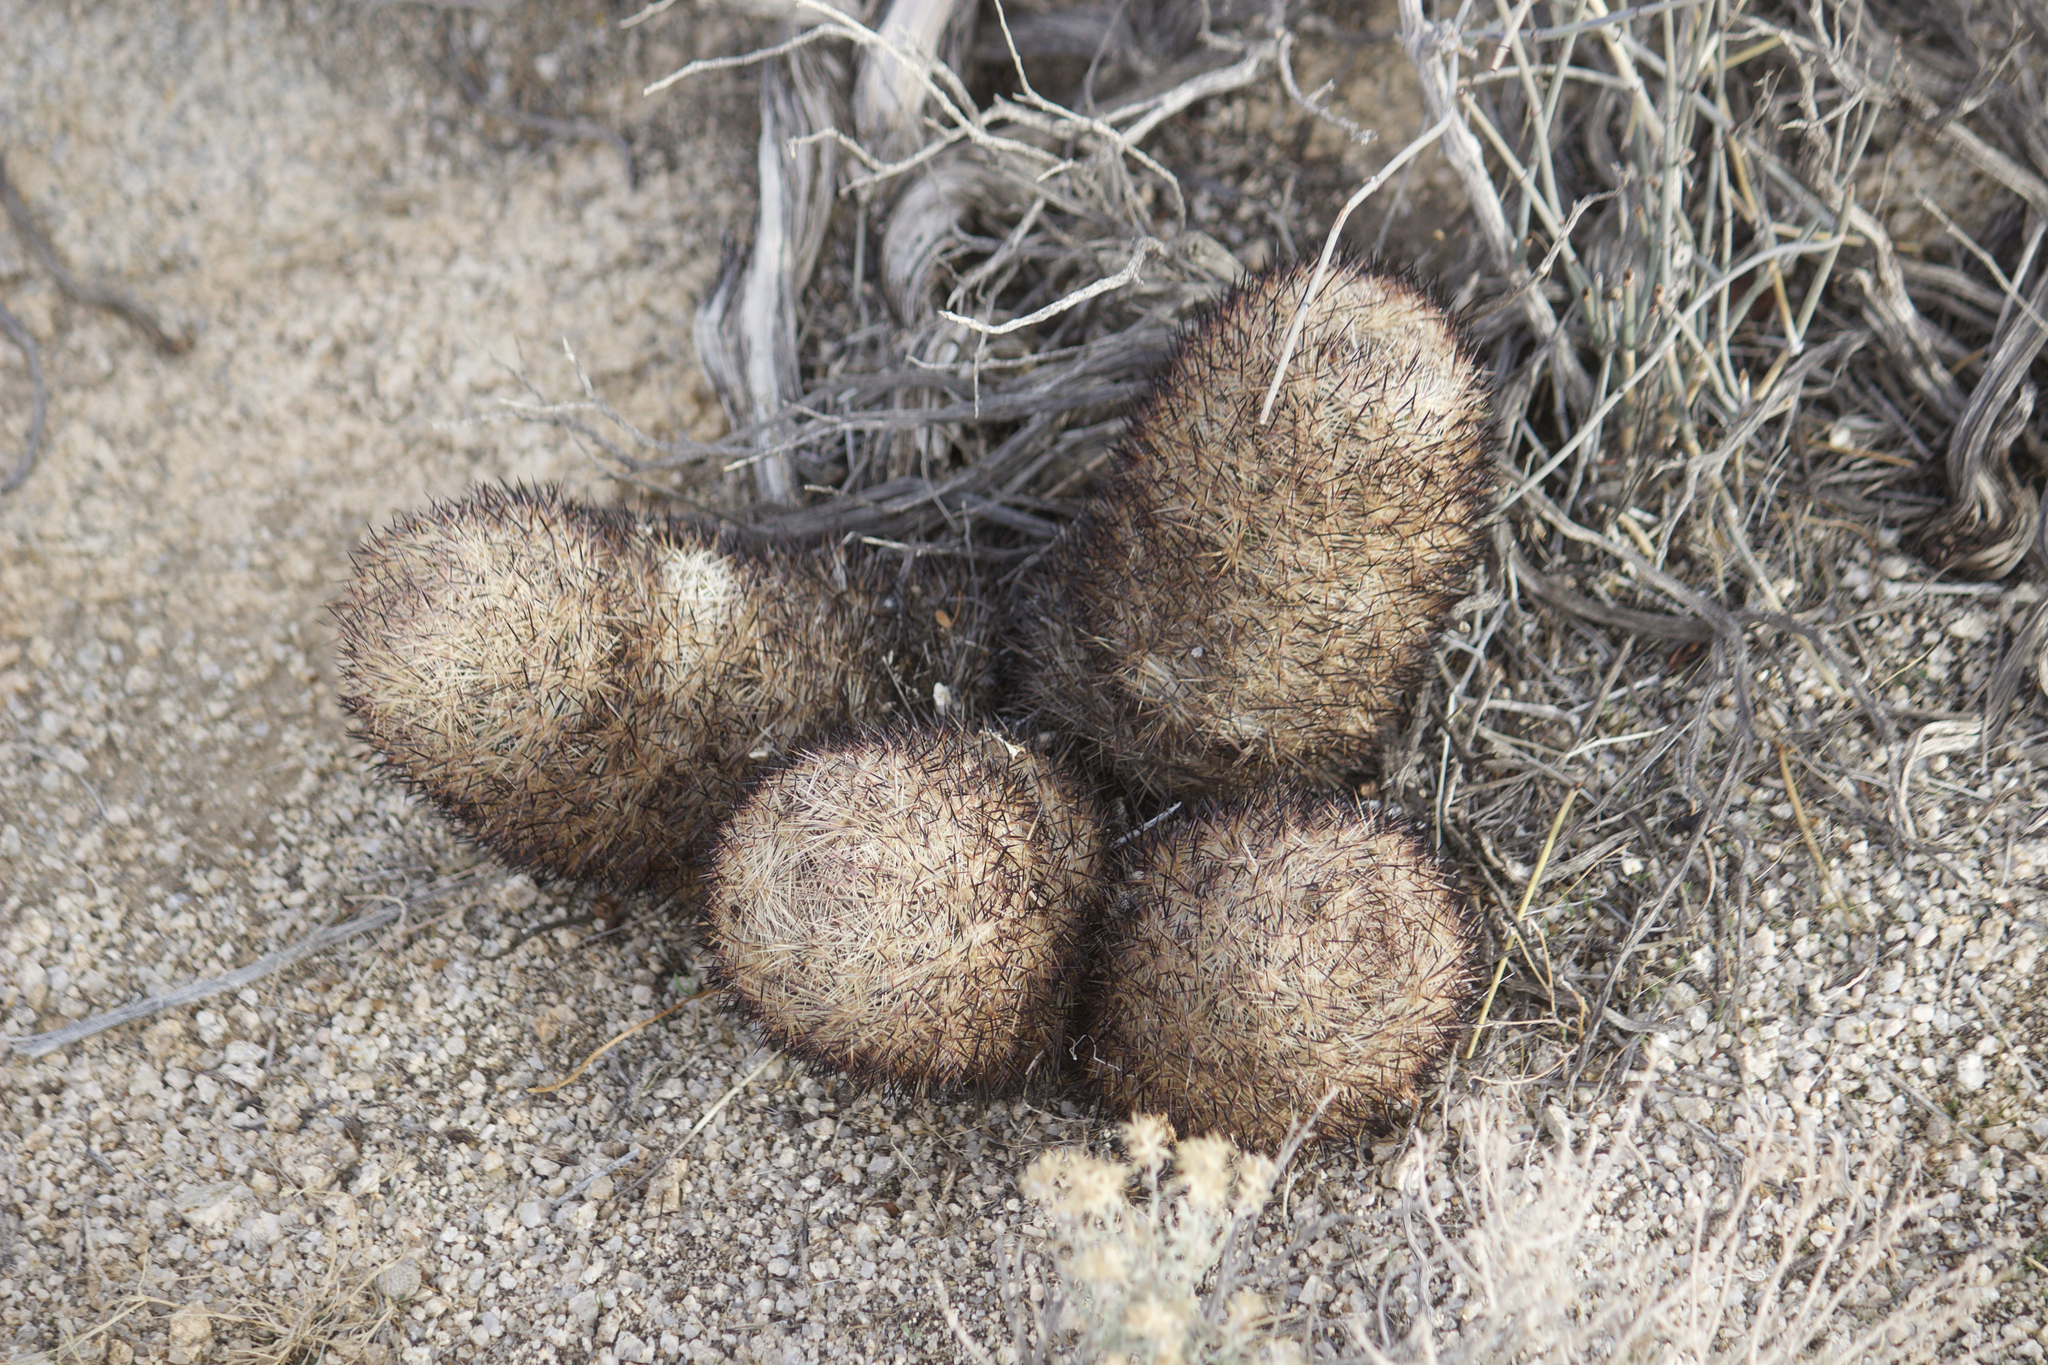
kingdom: Plantae
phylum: Tracheophyta
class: Magnoliopsida
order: Caryophyllales
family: Cactaceae
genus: Pelecyphora
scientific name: Pelecyphora alversonii
